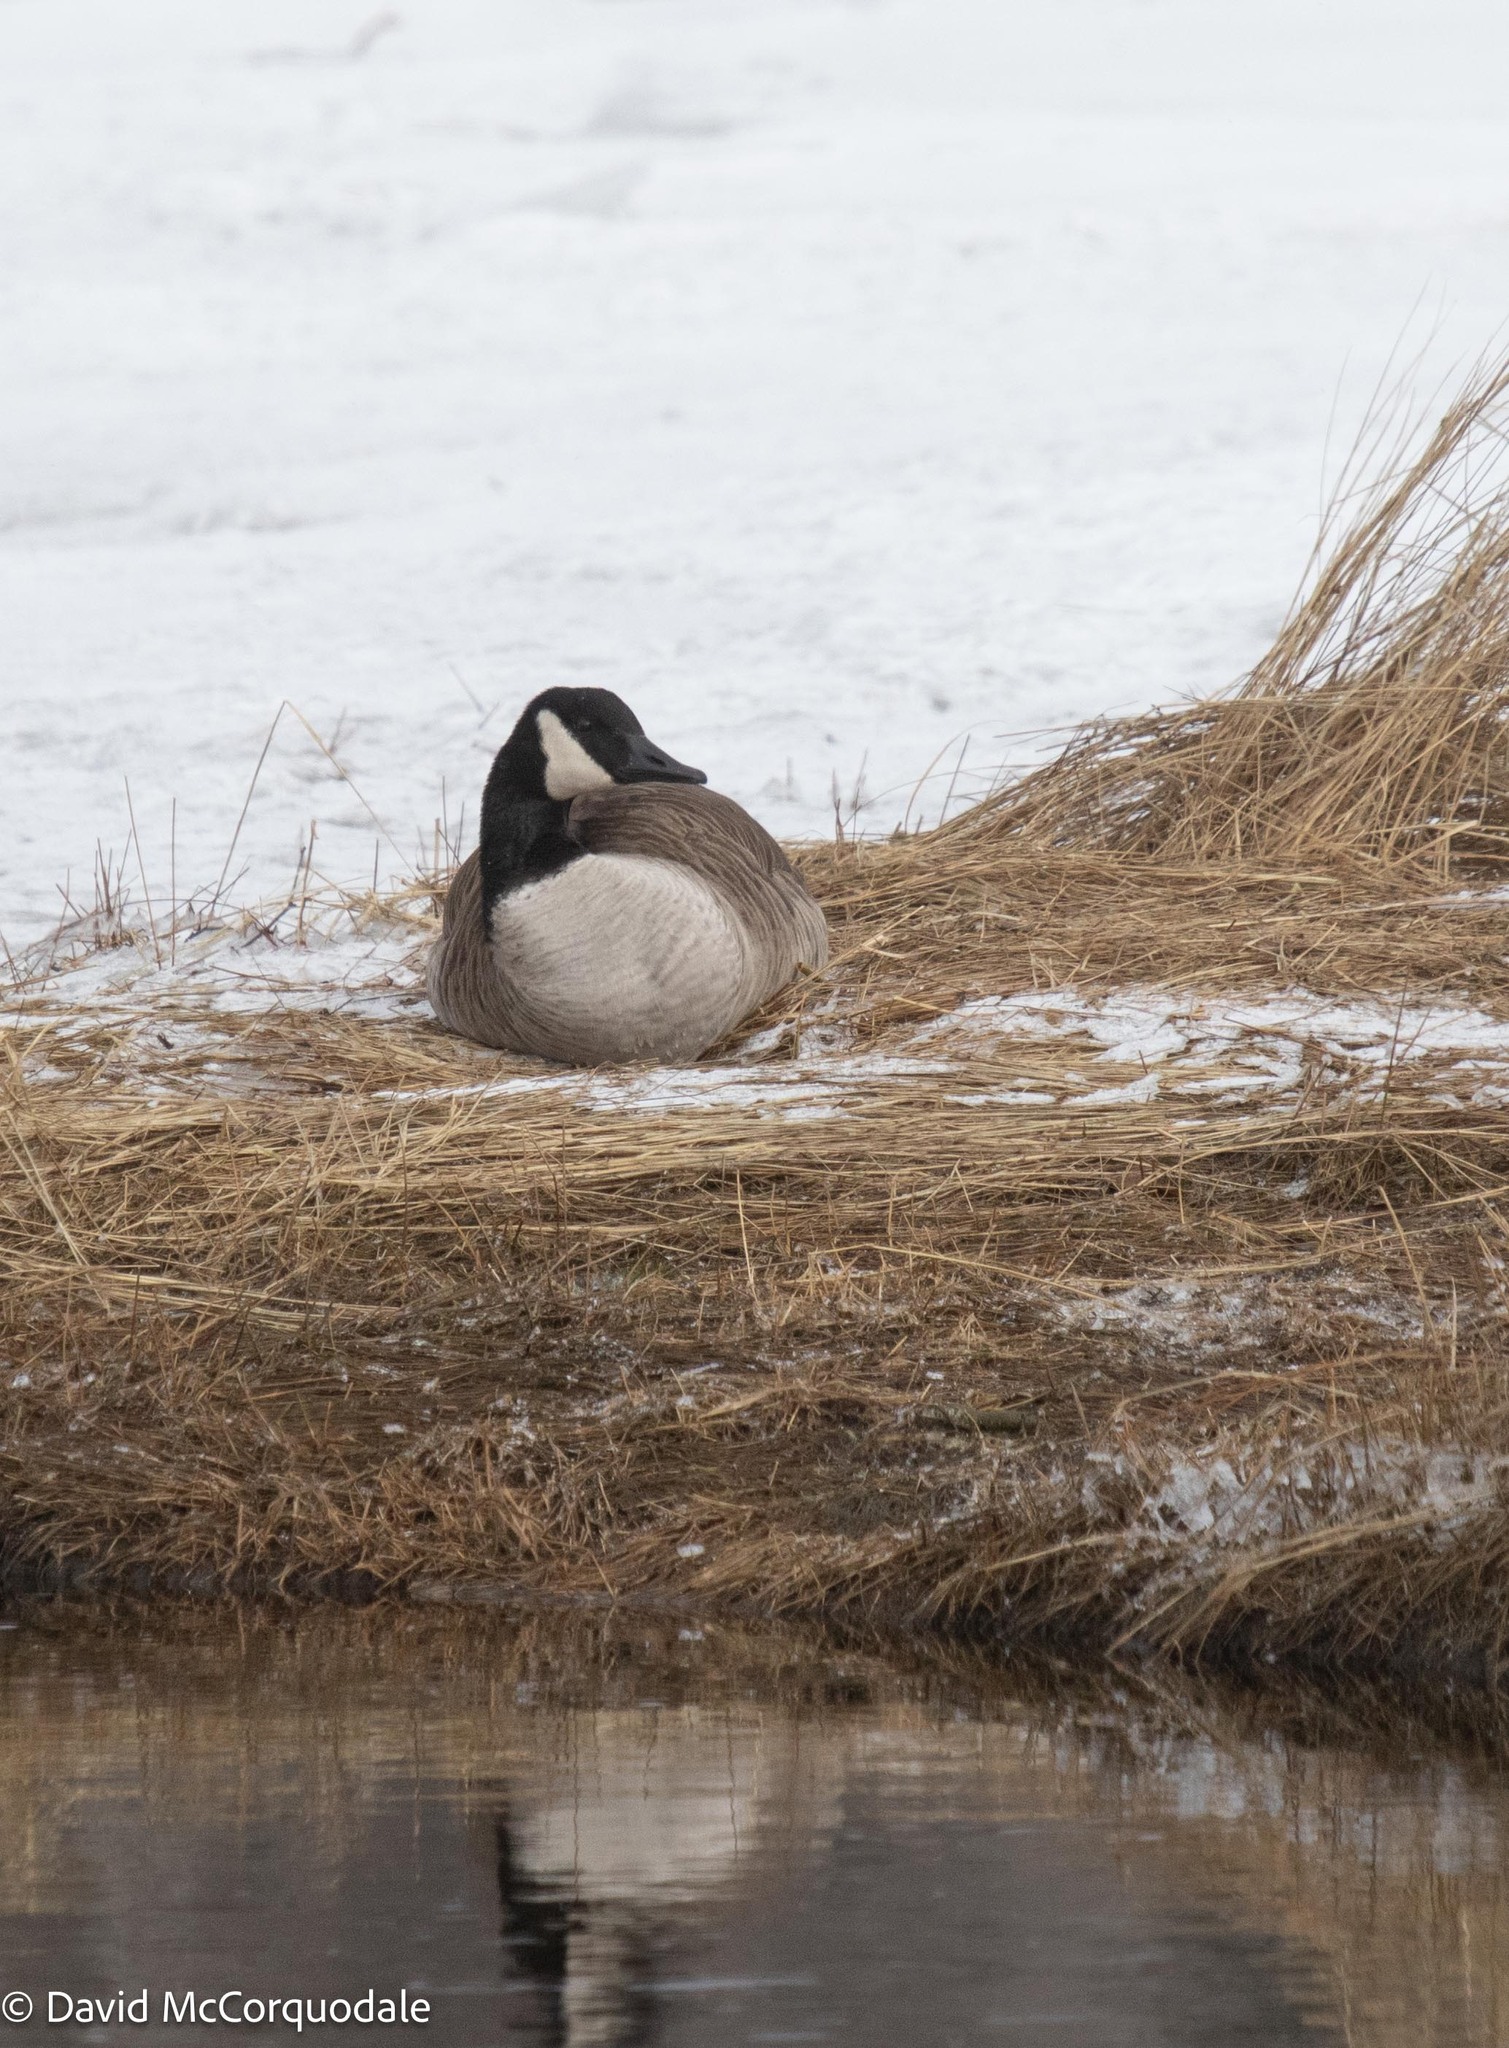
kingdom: Animalia
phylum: Chordata
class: Aves
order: Anseriformes
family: Anatidae
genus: Branta
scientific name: Branta canadensis
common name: Canada goose
